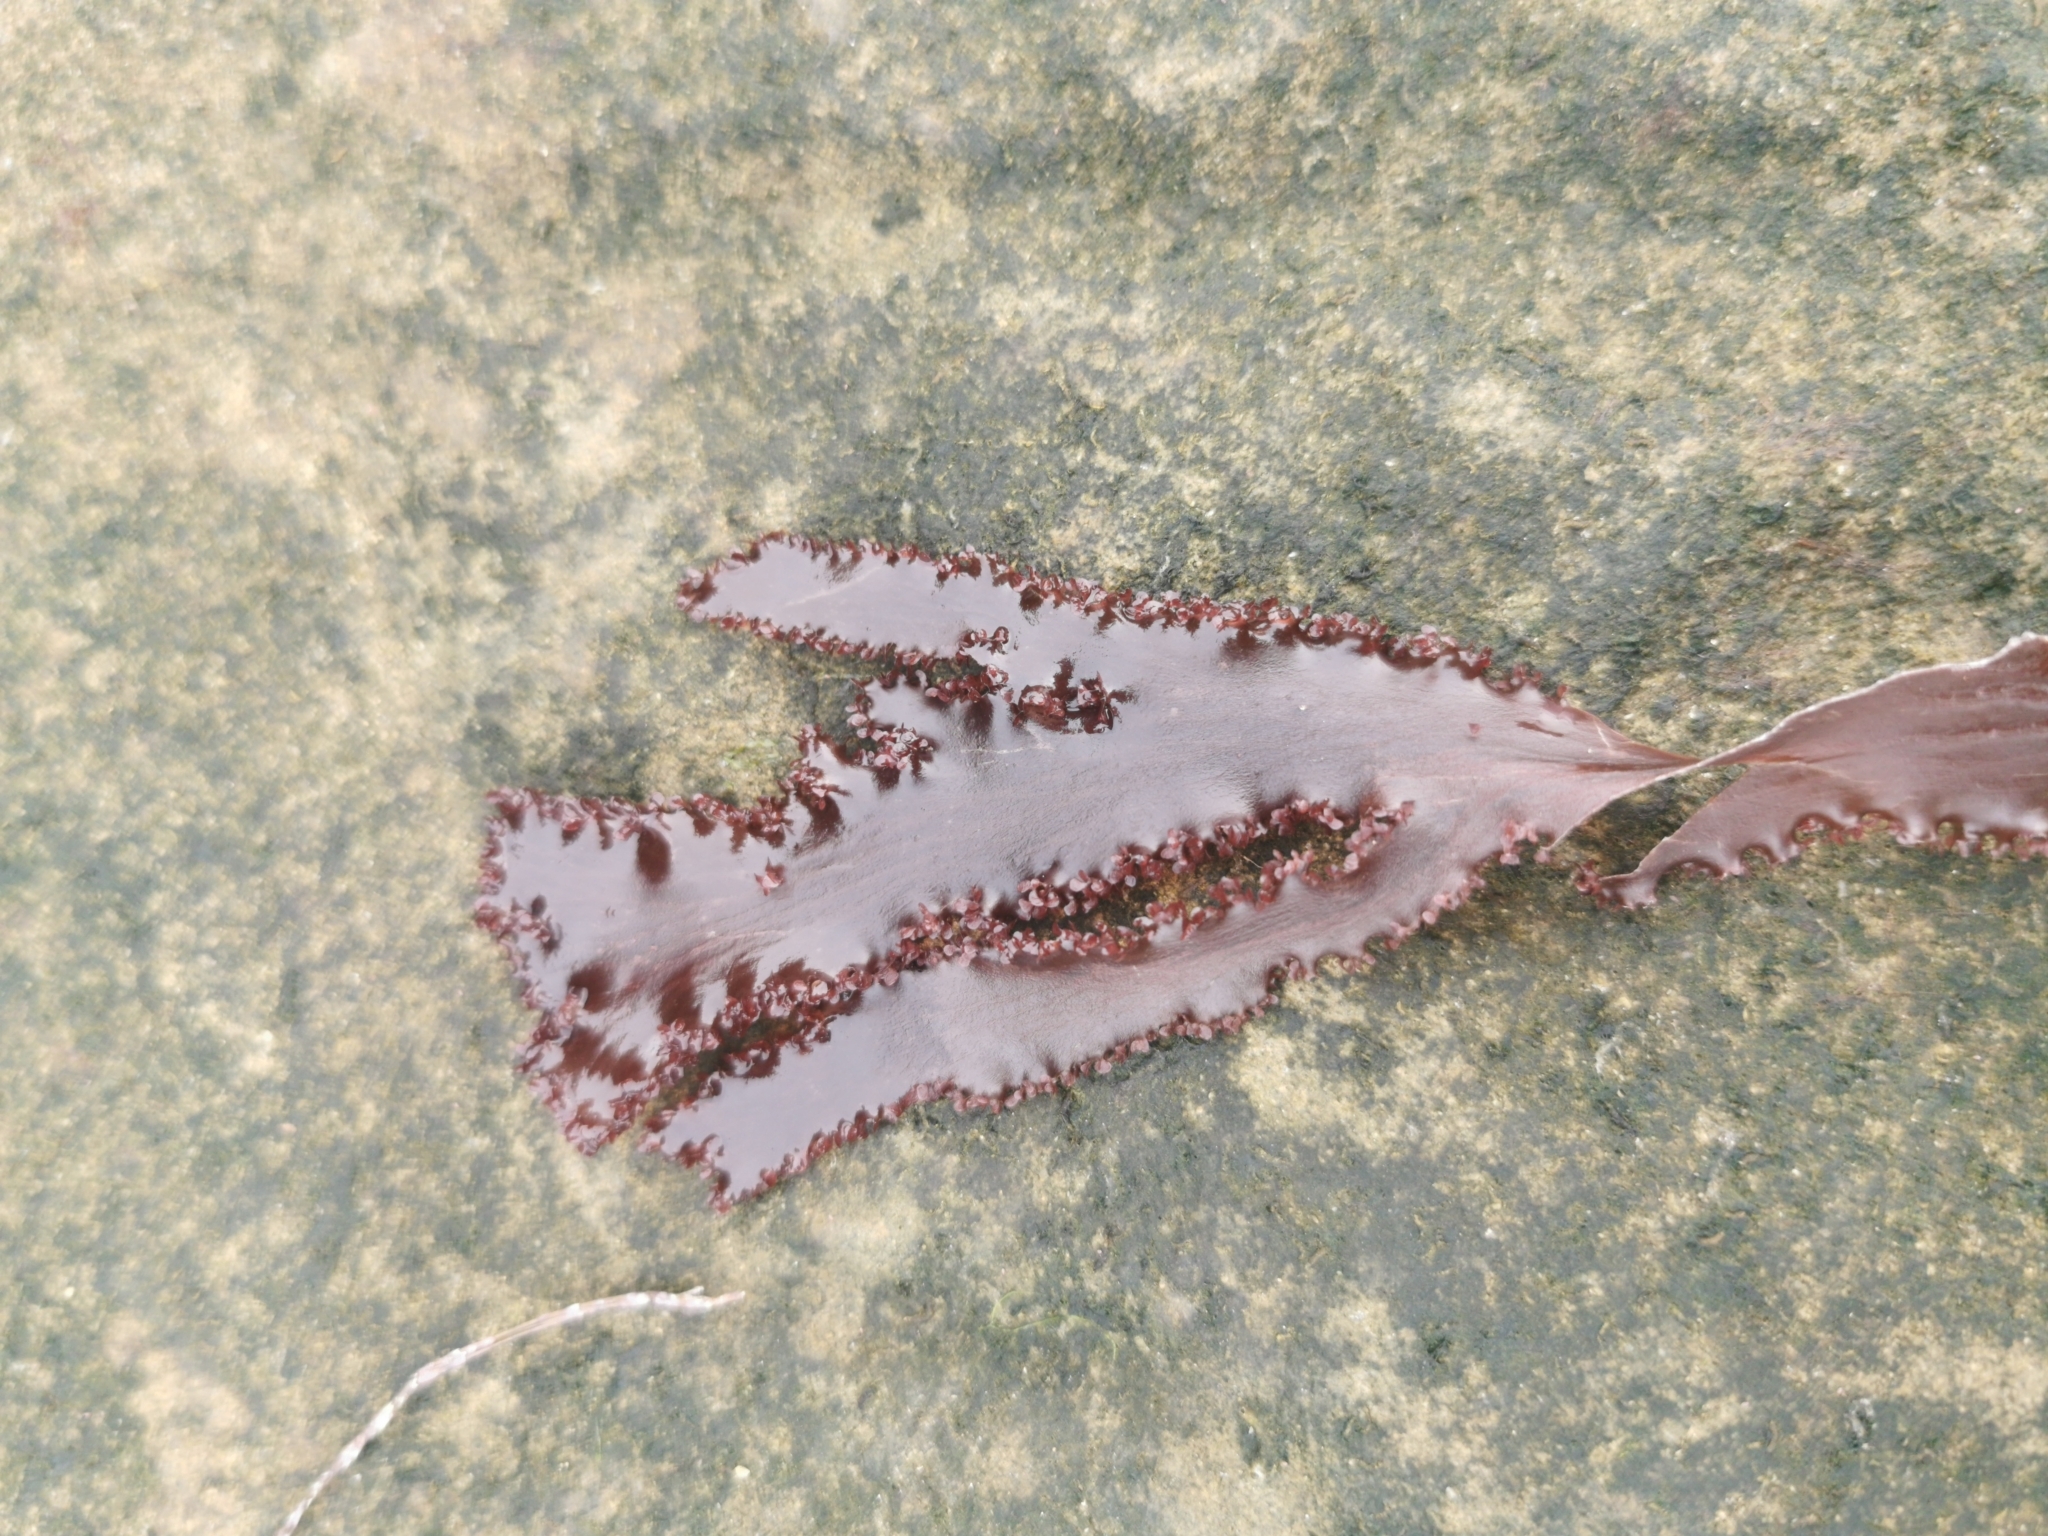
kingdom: Plantae
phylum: Rhodophyta
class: Florideophyceae
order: Ceramiales
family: Delesseriaceae
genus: Cryptopleura
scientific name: Cryptopleura ruprechtiana
